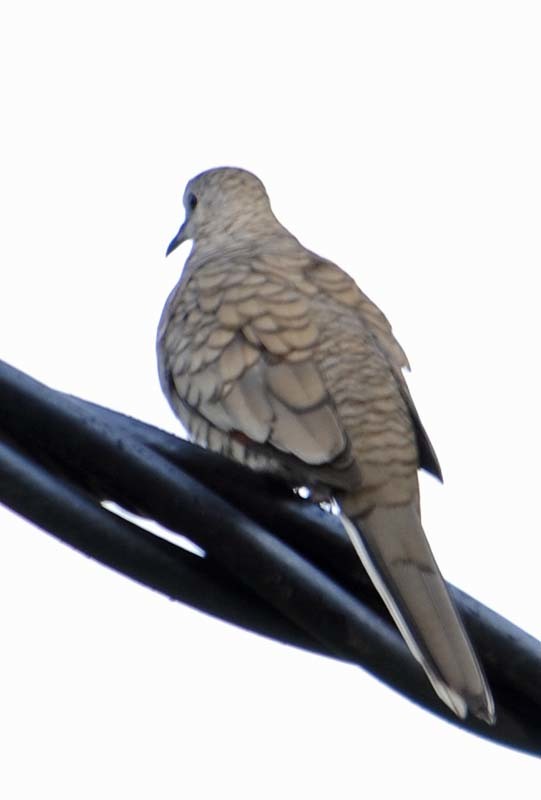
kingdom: Animalia
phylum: Chordata
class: Aves
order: Columbiformes
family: Columbidae
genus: Columbina
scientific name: Columbina inca
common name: Inca dove
